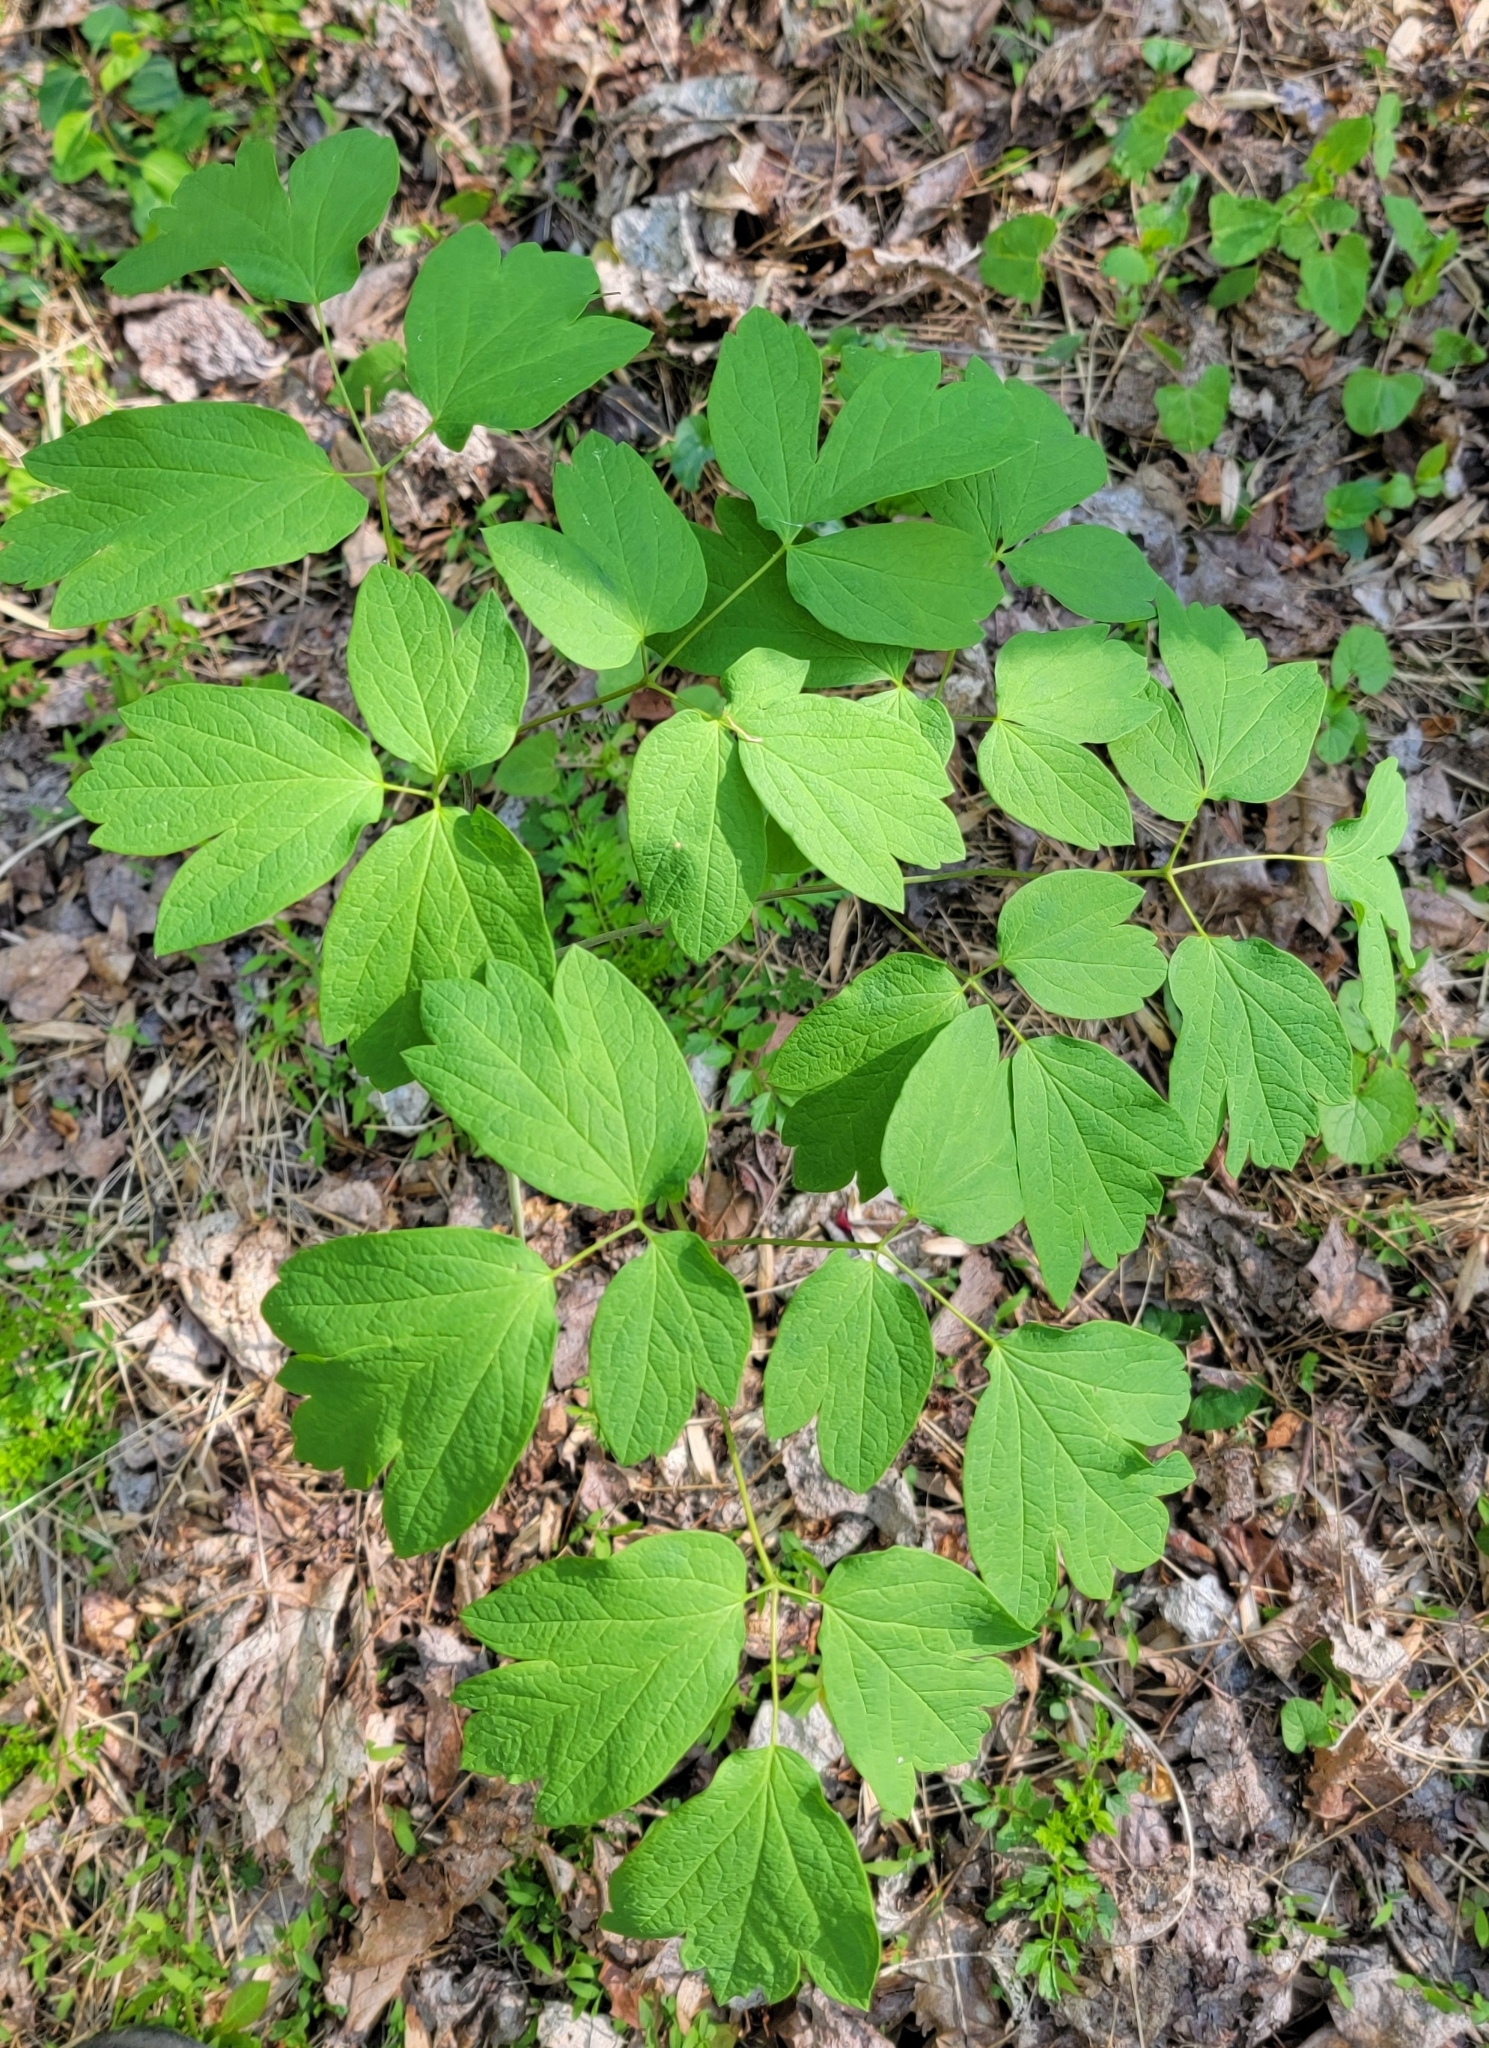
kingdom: Plantae
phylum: Tracheophyta
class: Magnoliopsida
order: Ranunculales
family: Berberidaceae
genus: Caulophyllum
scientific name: Caulophyllum thalictroides
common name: Blue cohosh
